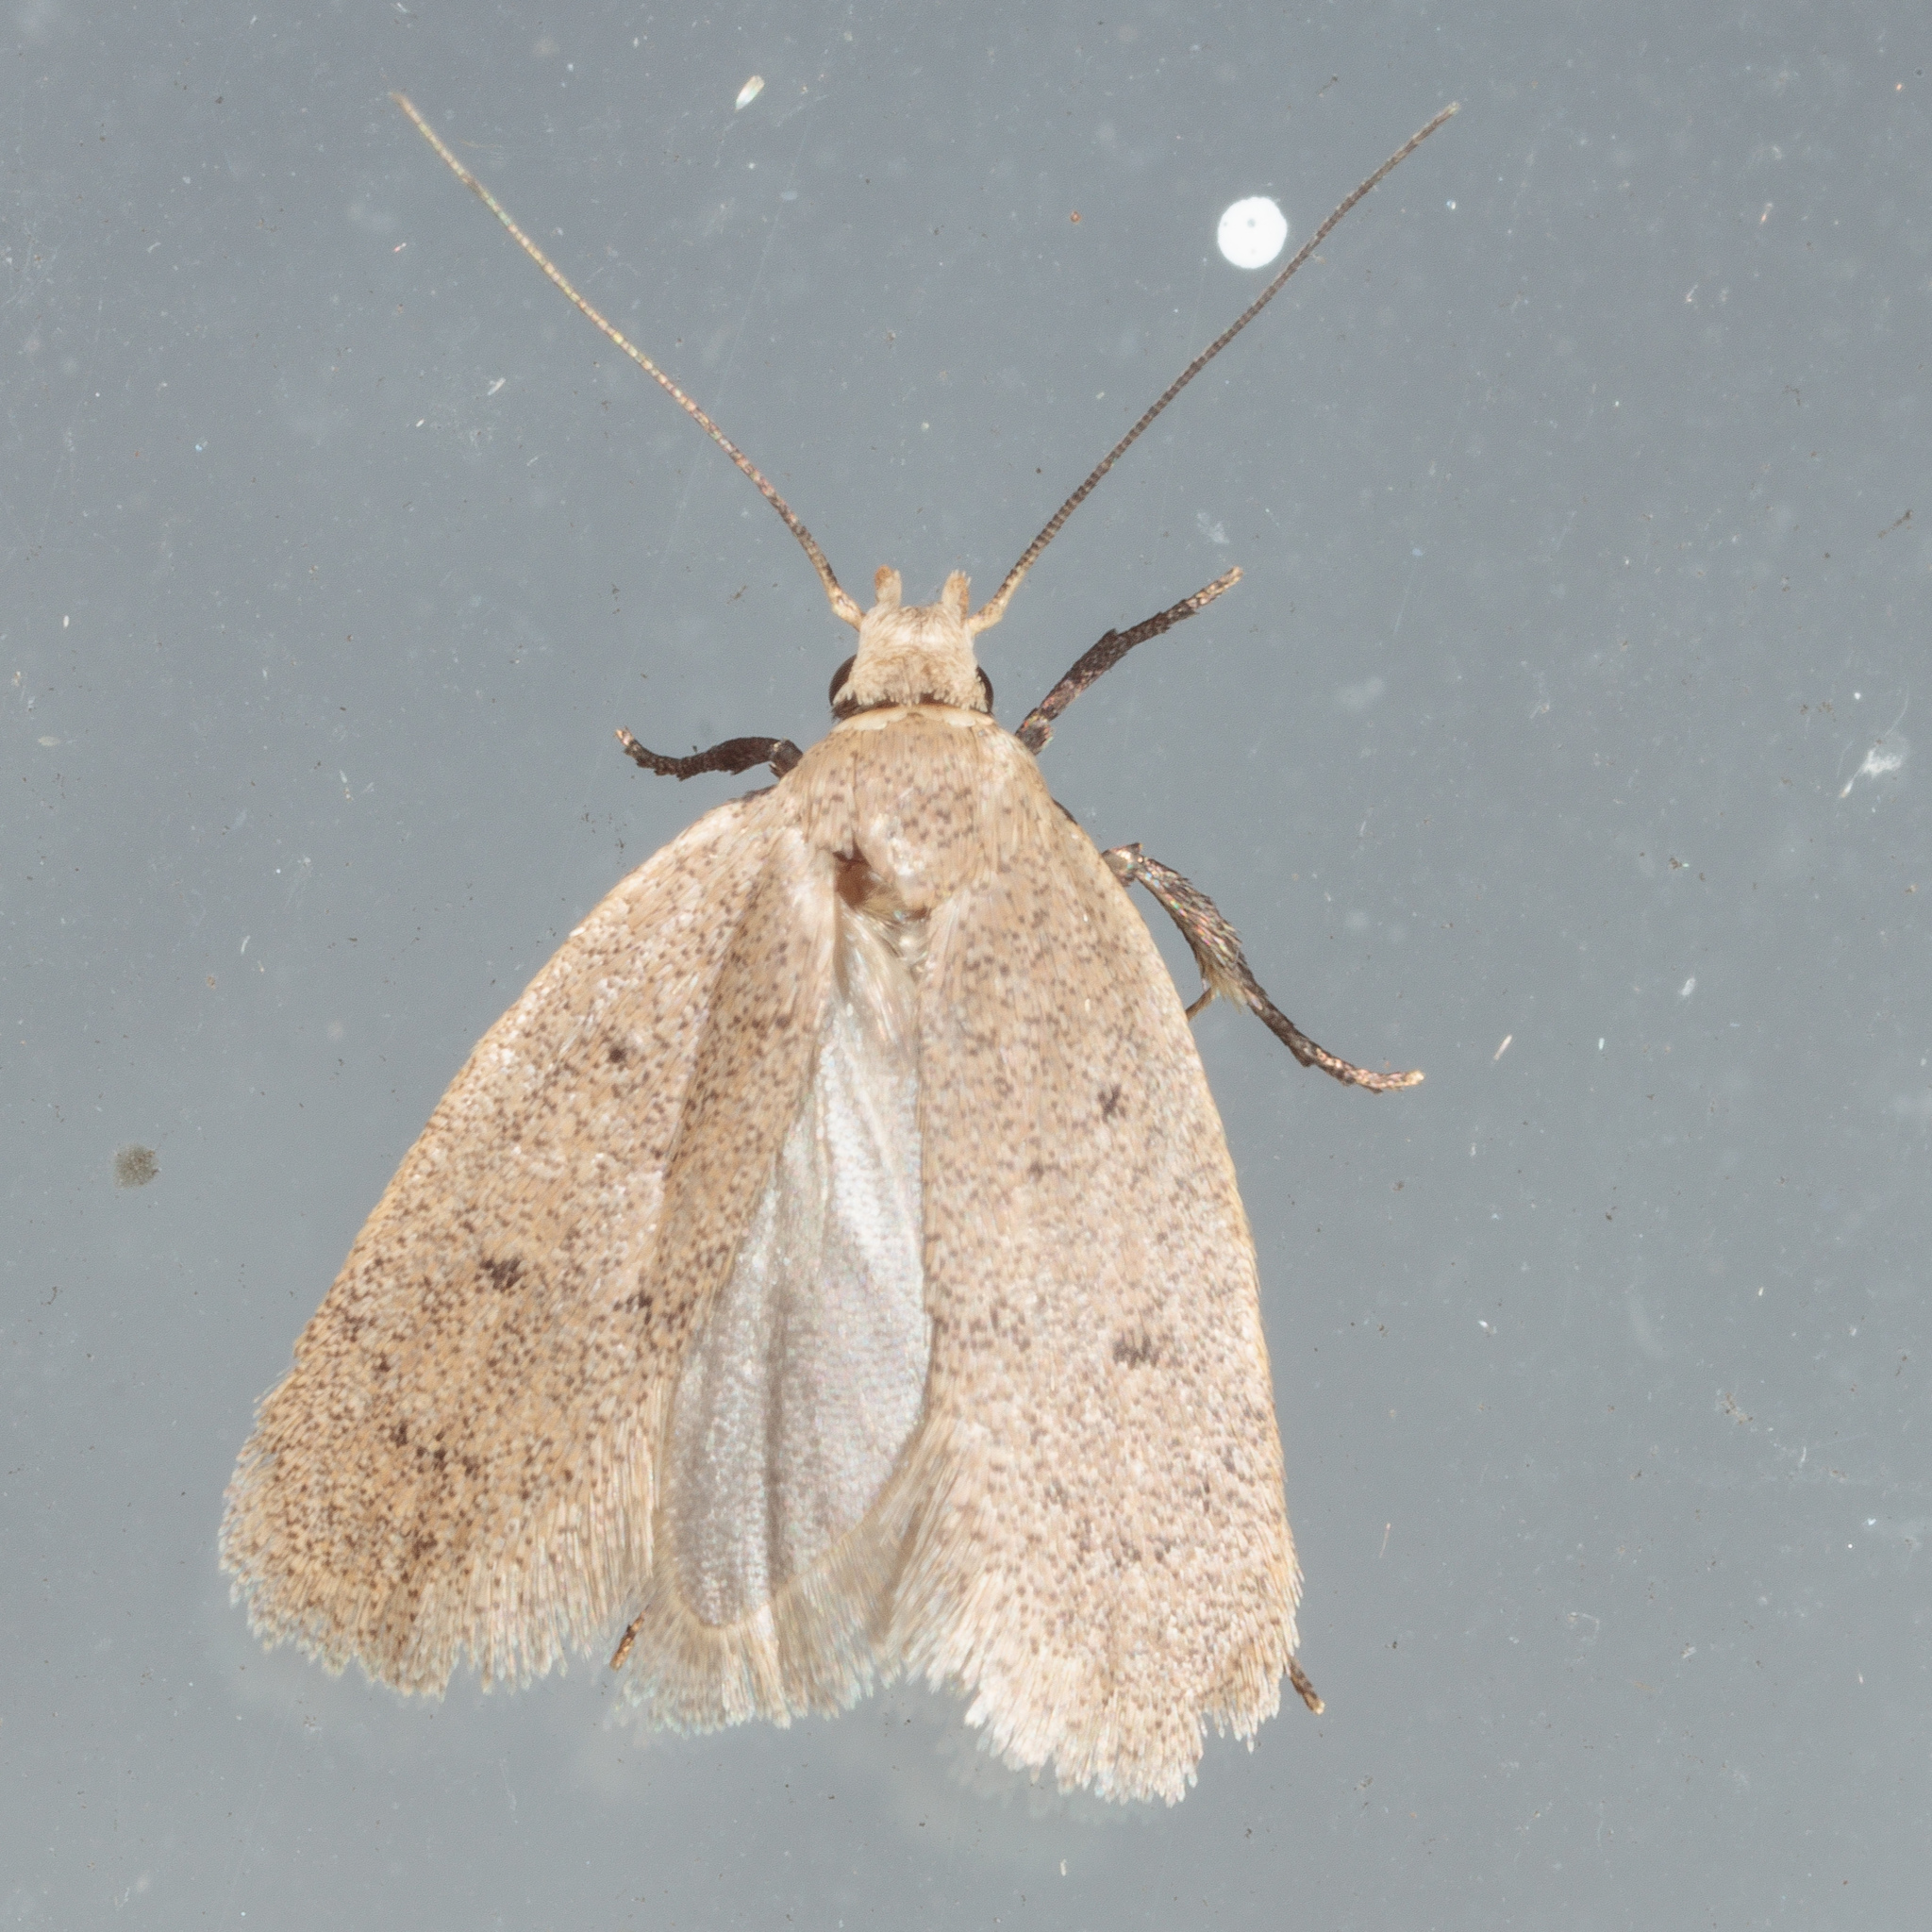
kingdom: Animalia
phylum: Arthropoda
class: Insecta
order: Lepidoptera
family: Oecophoridae
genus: Inga
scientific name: Inga obscuromaculella
